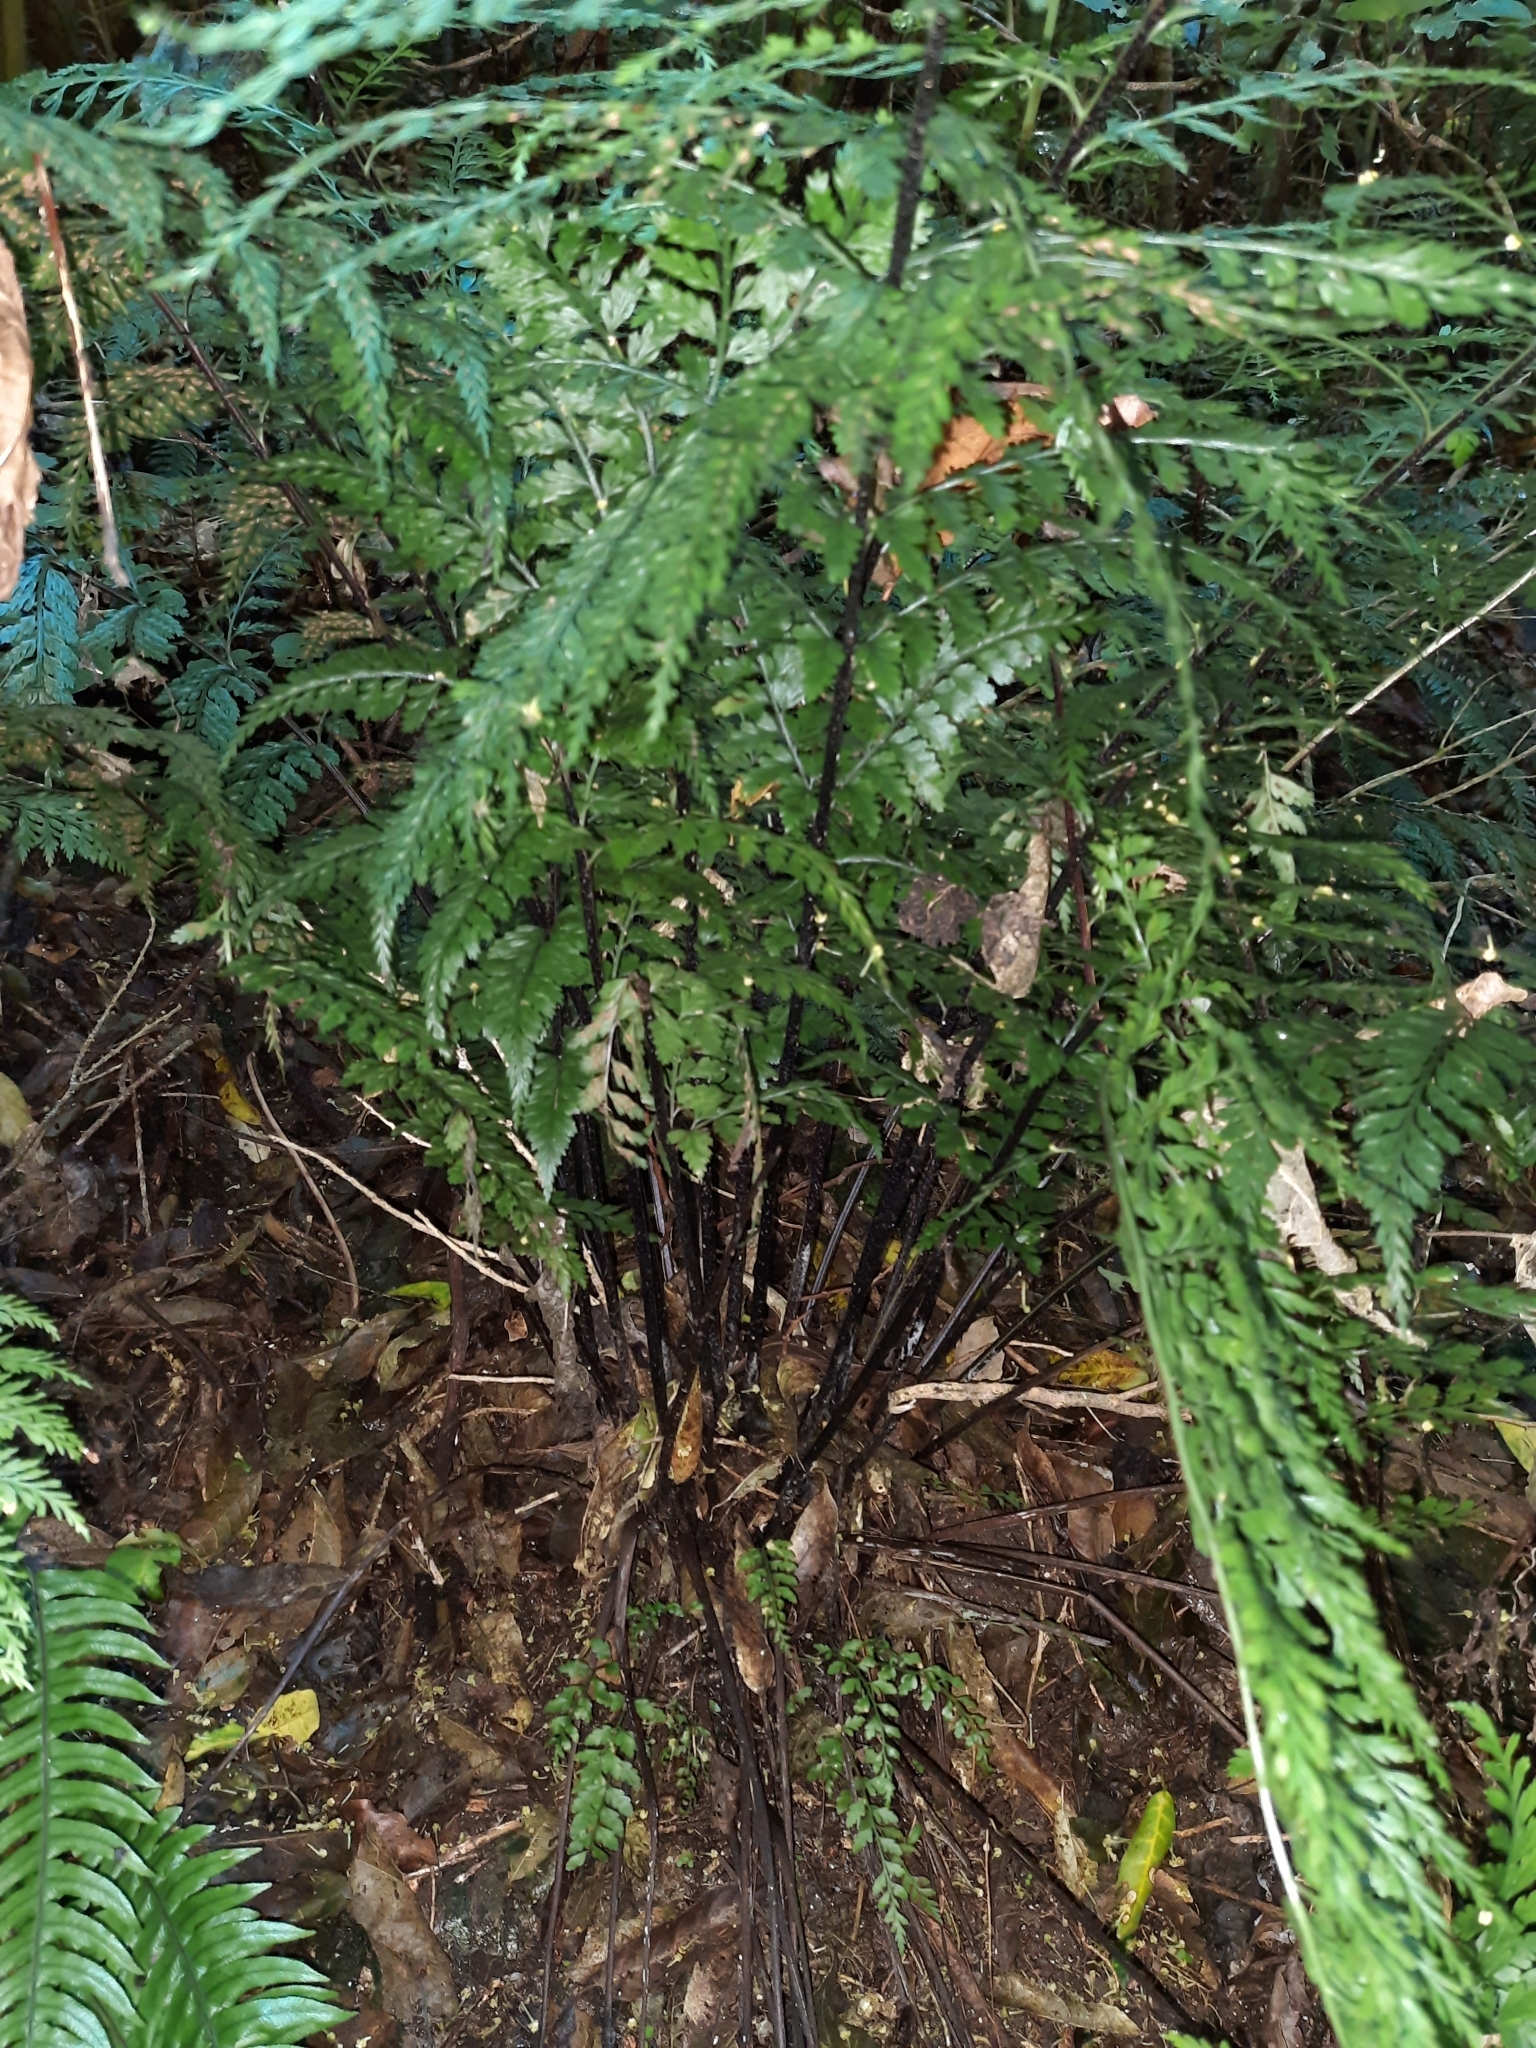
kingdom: Plantae
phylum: Tracheophyta
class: Polypodiopsida
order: Polypodiales
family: Aspleniaceae
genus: Asplenium
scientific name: Asplenium
